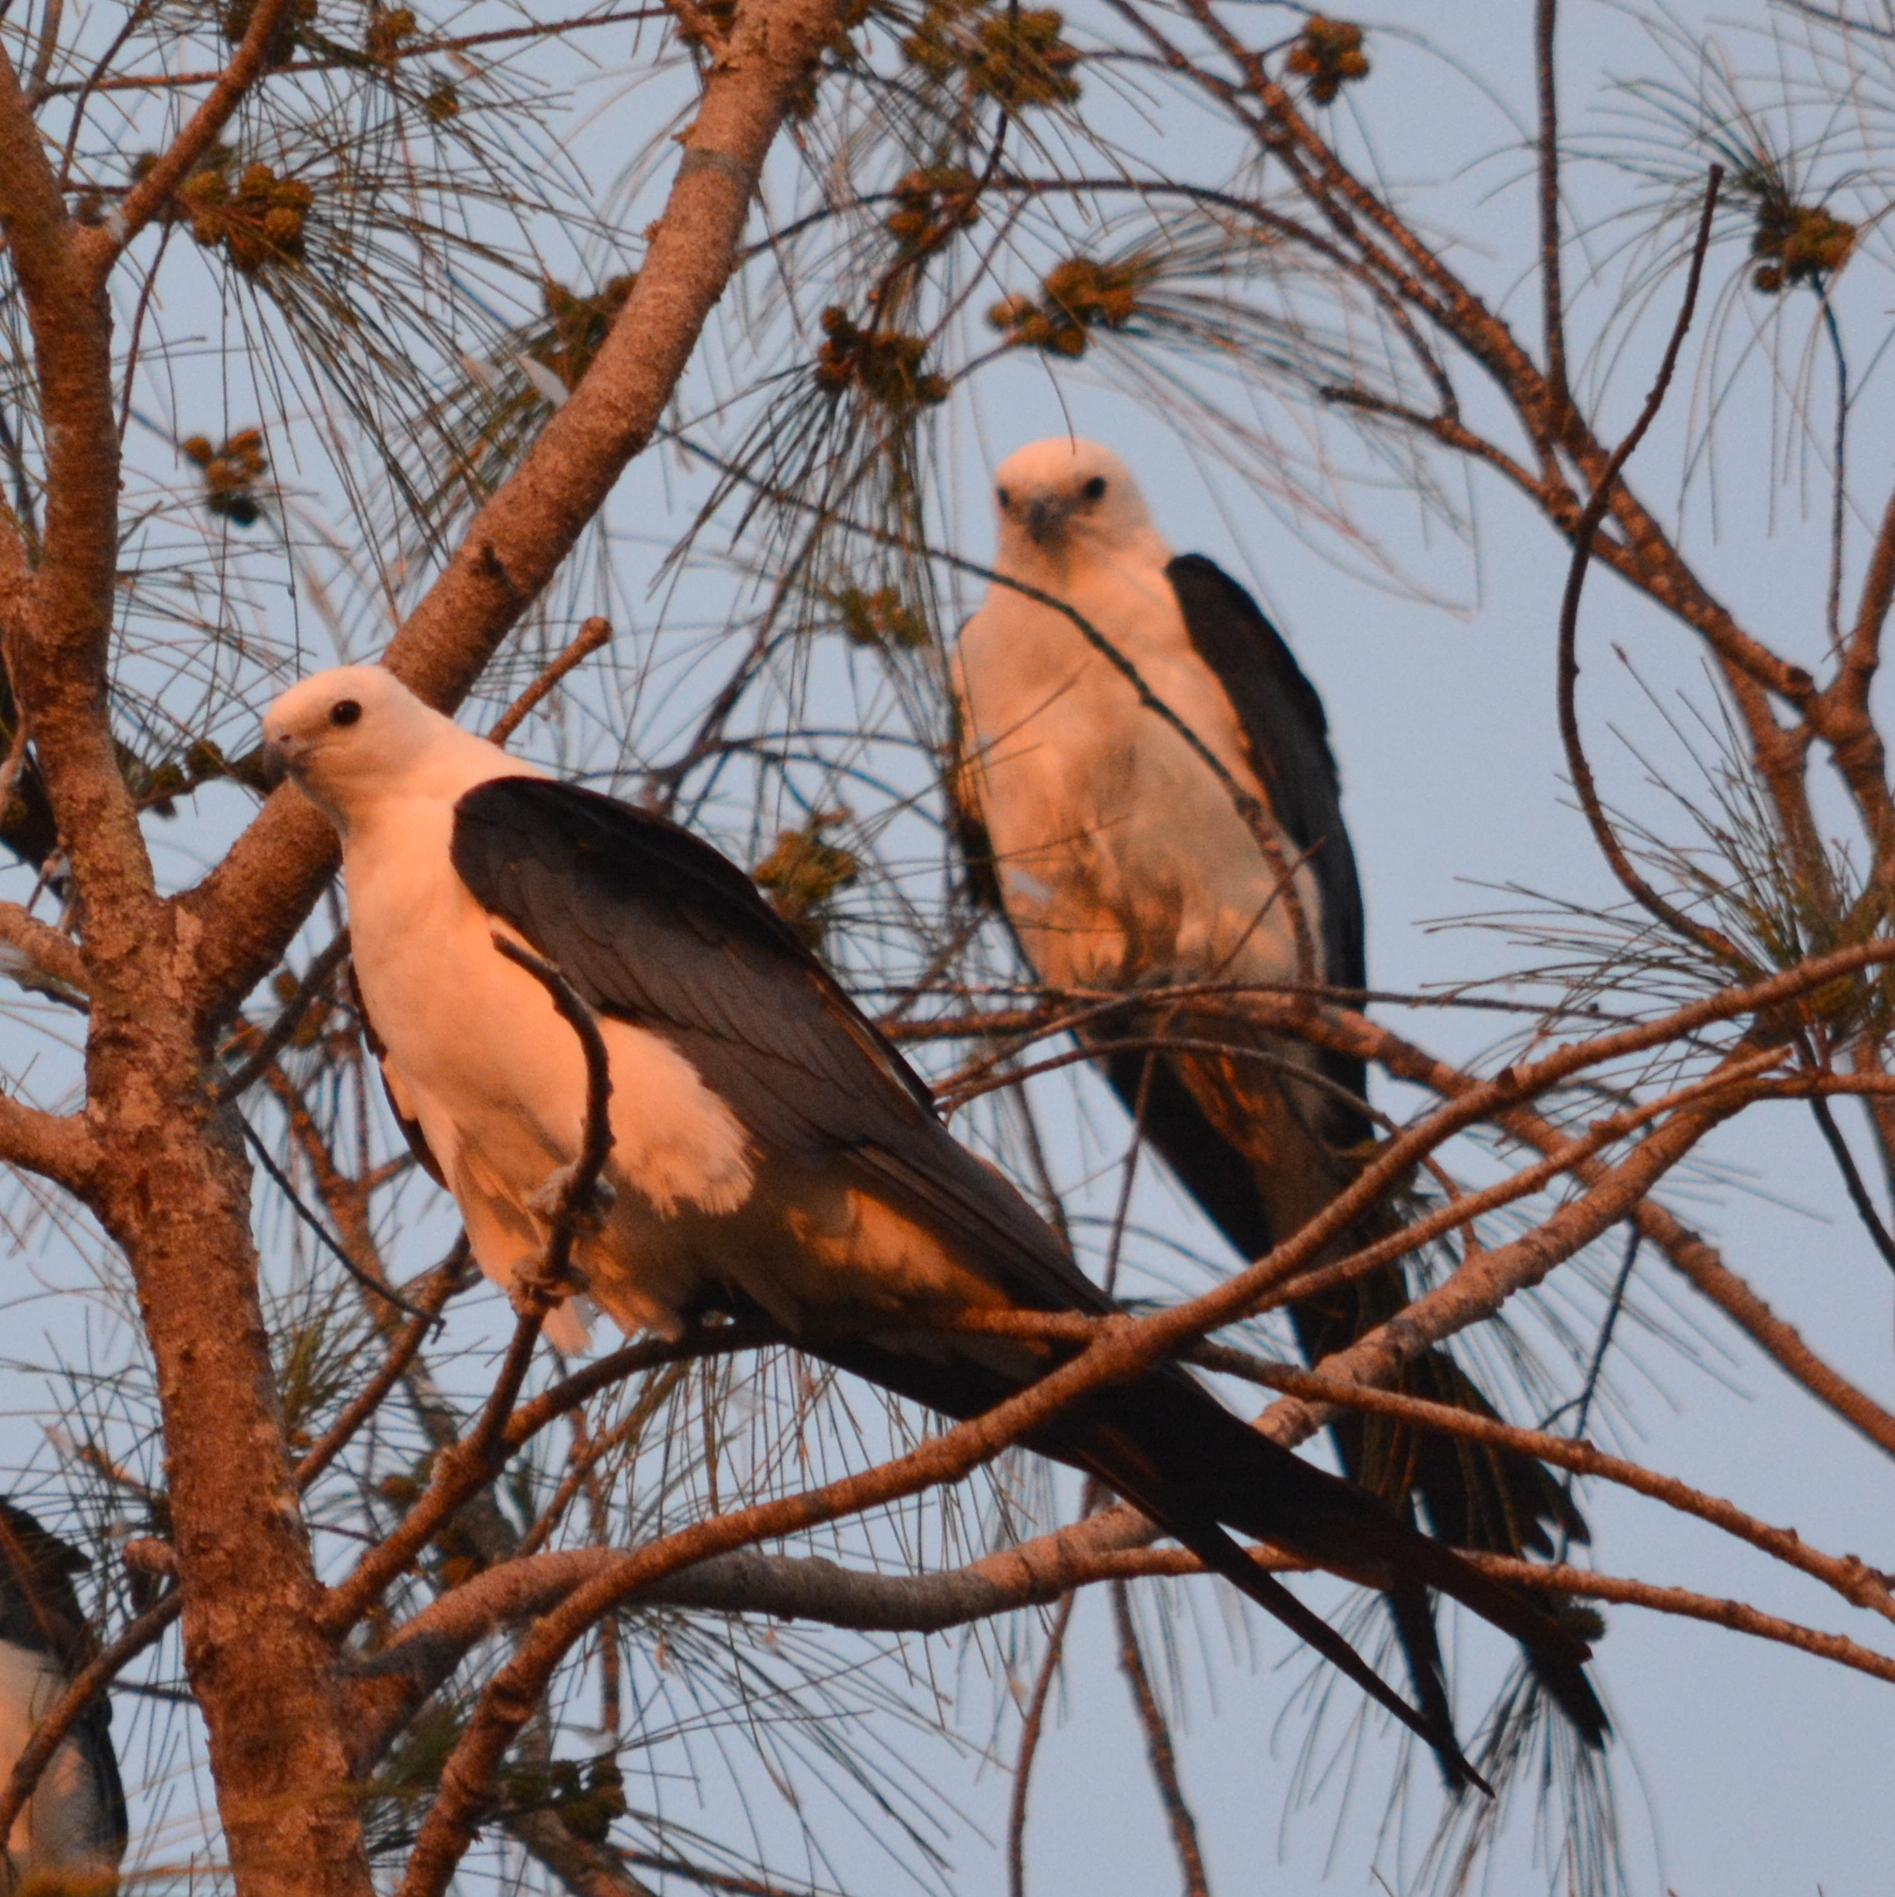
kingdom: Animalia
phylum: Chordata
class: Aves
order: Accipitriformes
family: Accipitridae
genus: Elanoides
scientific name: Elanoides forficatus
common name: Swallow-tailed kite
